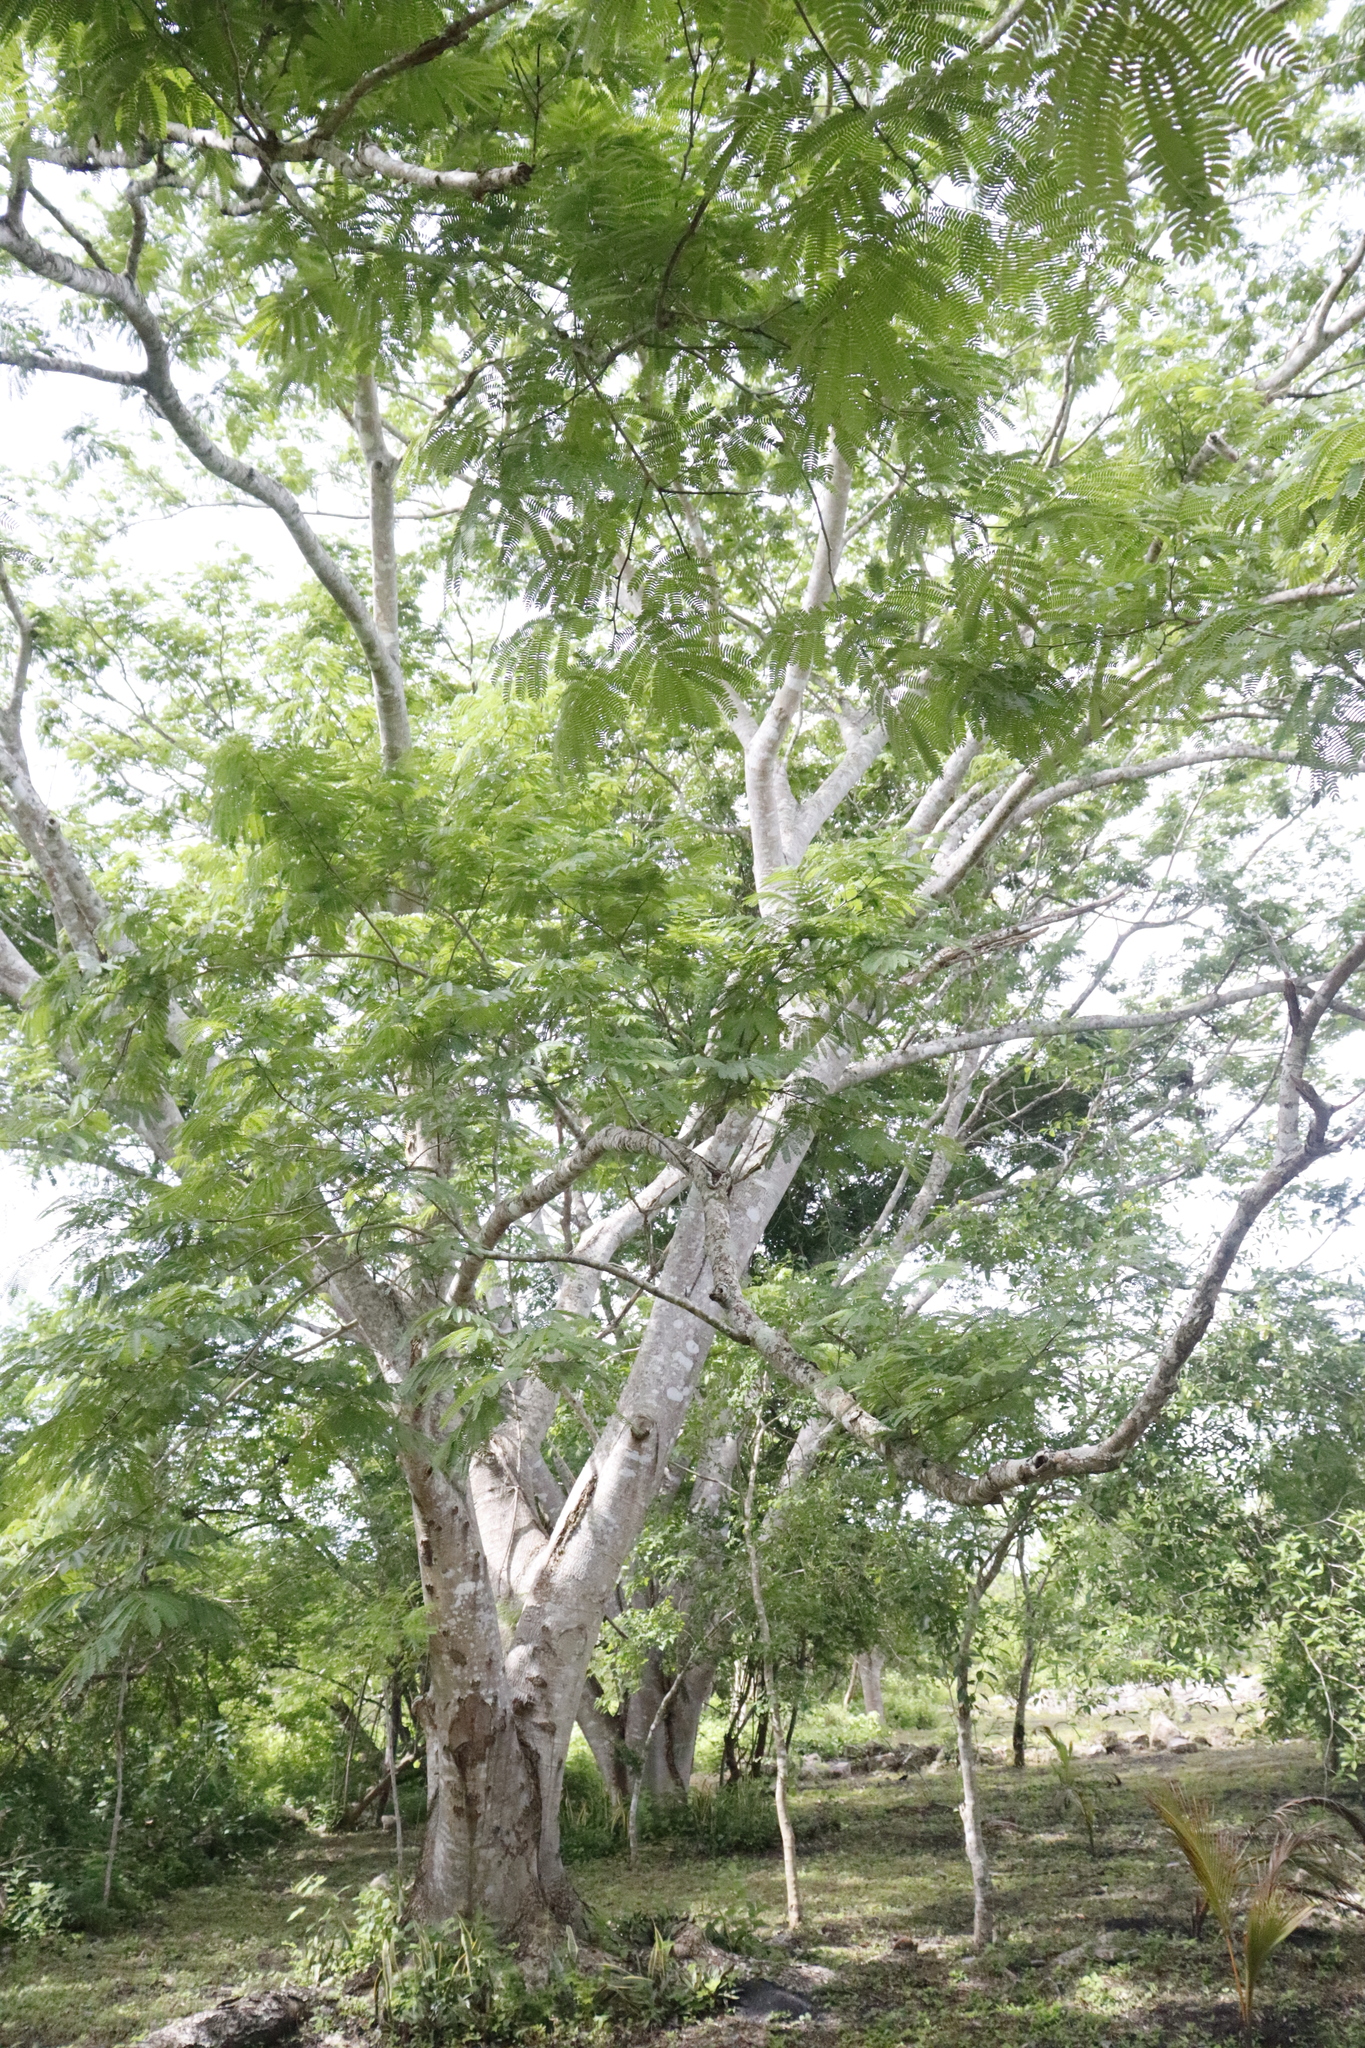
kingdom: Plantae
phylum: Tracheophyta
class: Magnoliopsida
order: Fabales
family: Fabaceae
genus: Enterolobium
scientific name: Enterolobium cyclocarpum
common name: Ear tree
